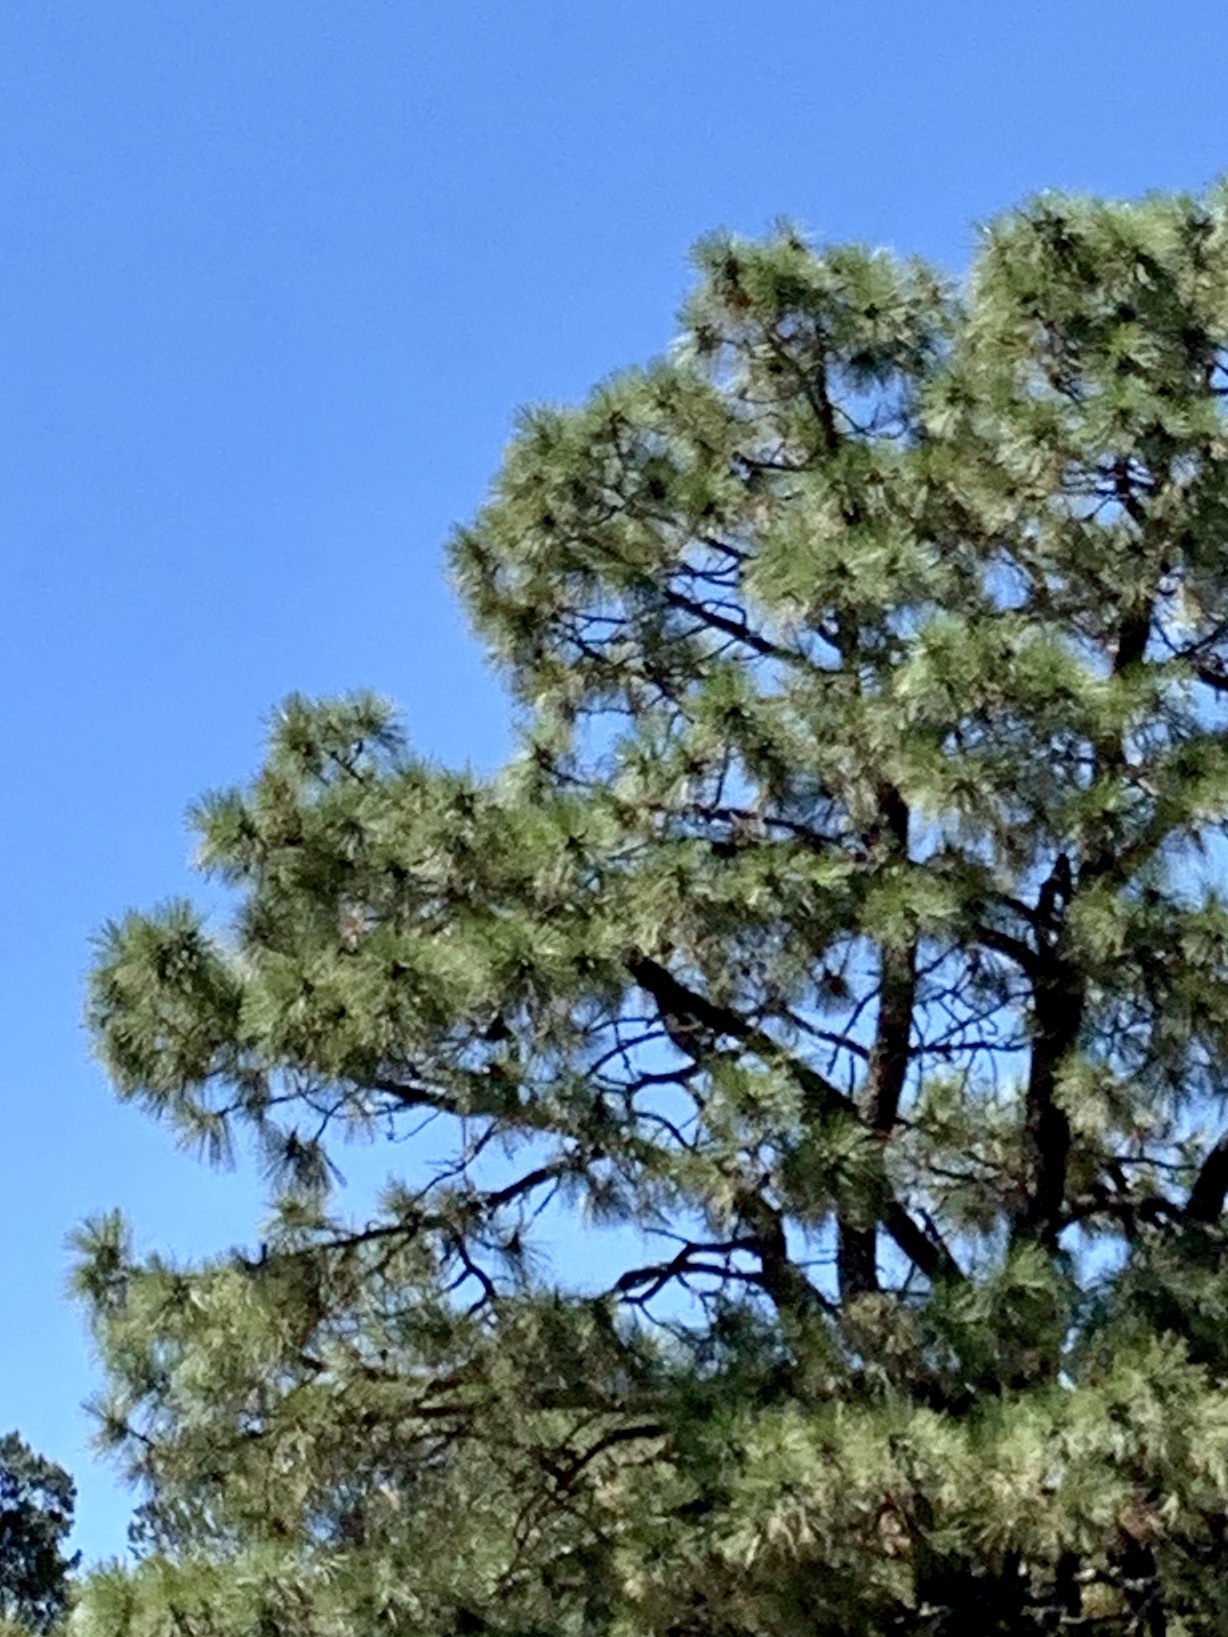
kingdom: Plantae
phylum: Tracheophyta
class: Pinopsida
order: Pinales
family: Pinaceae
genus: Pinus
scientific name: Pinus ponderosa
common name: Western yellow-pine
